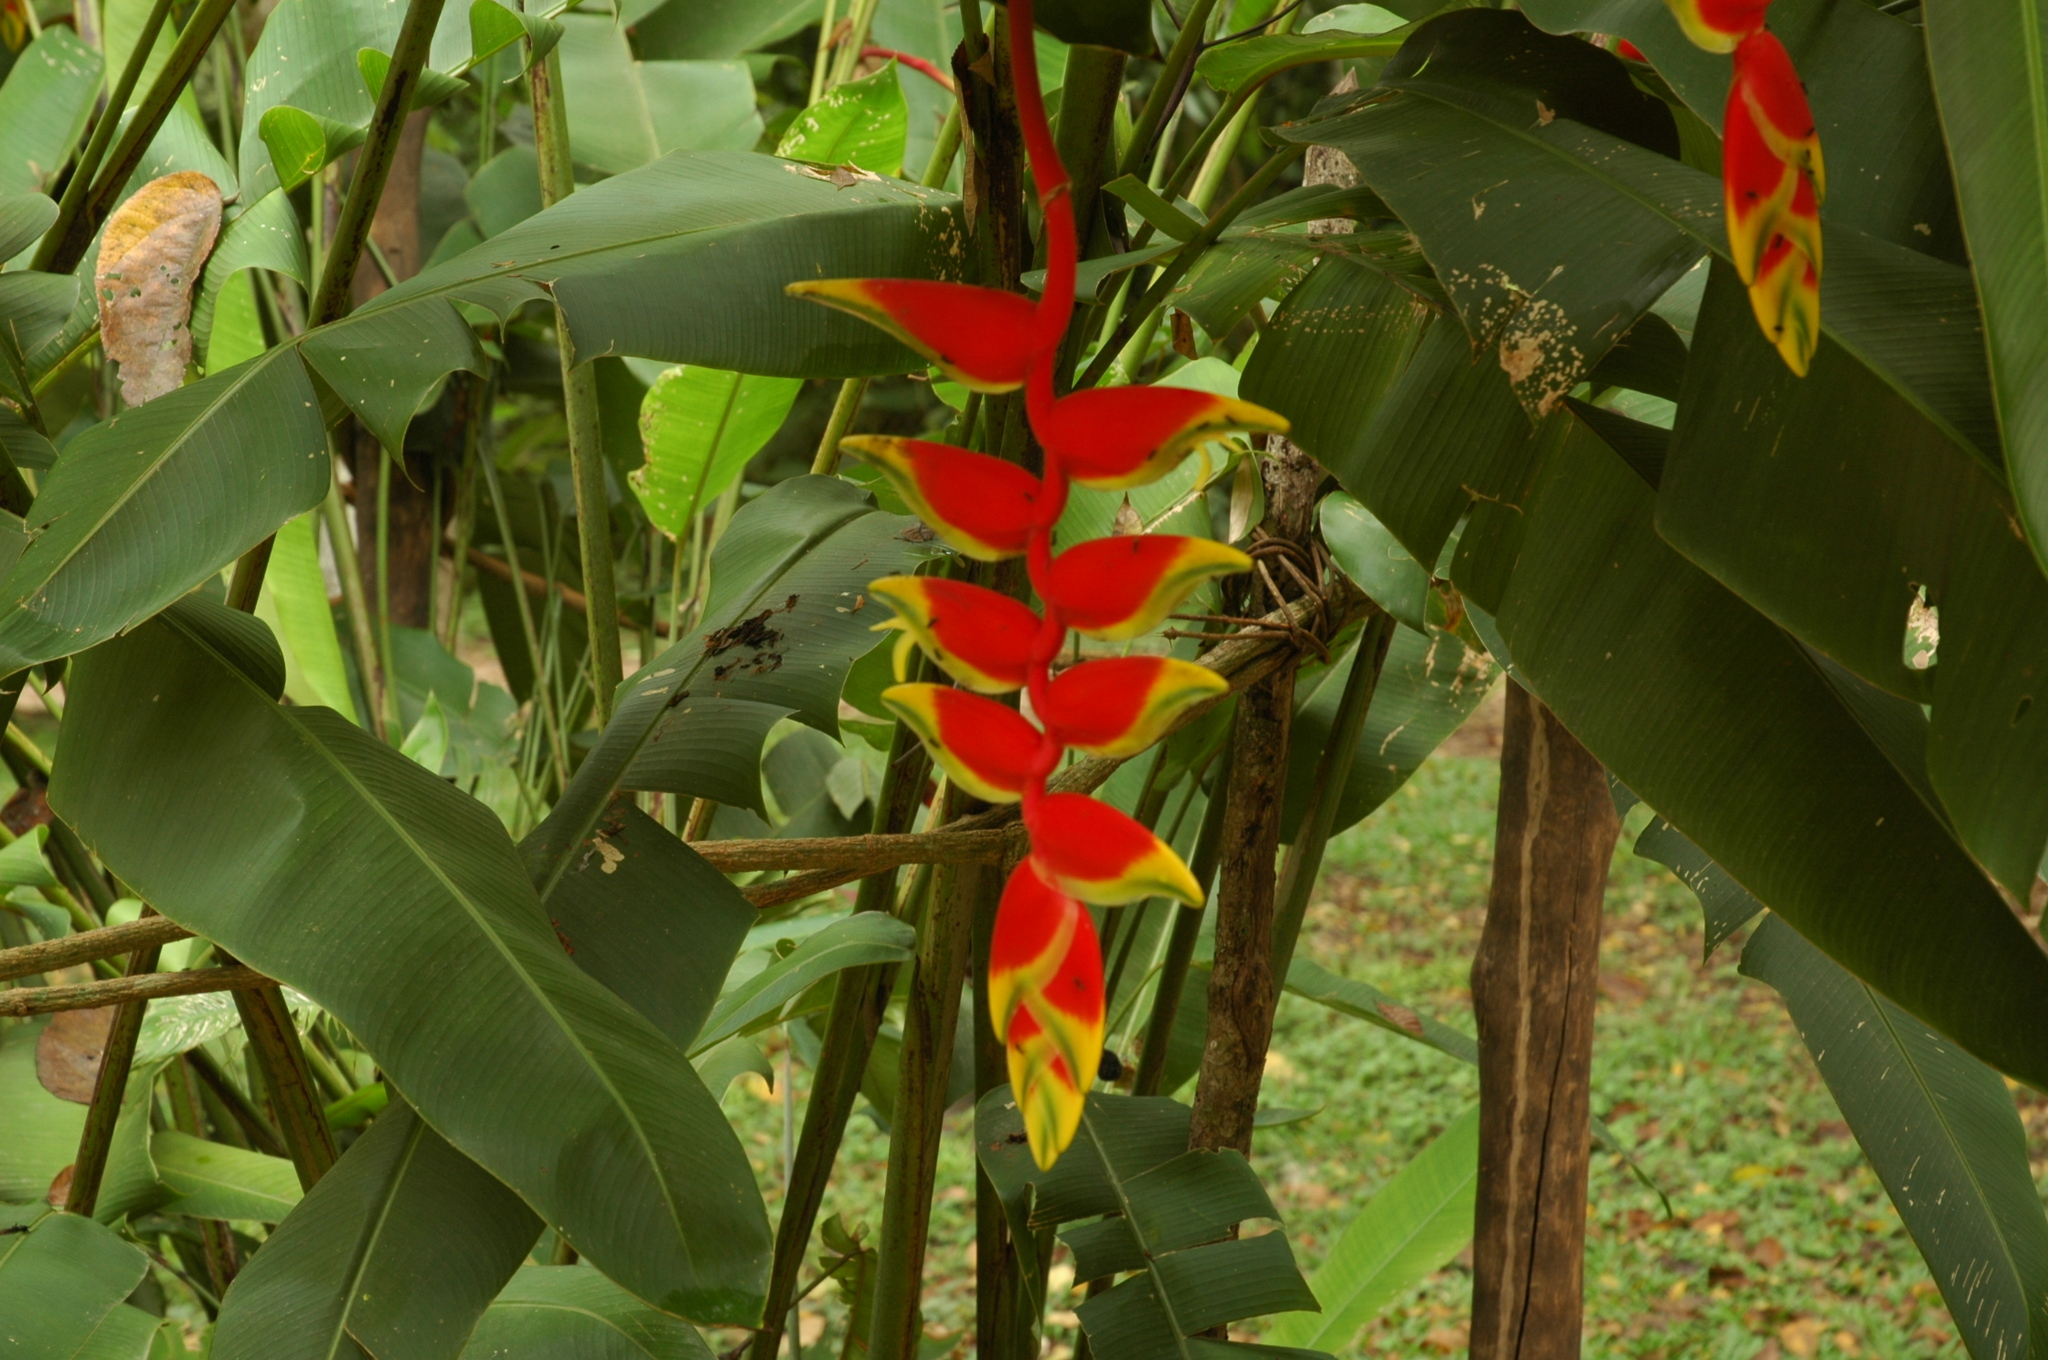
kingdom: Plantae
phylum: Tracheophyta
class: Liliopsida
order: Zingiberales
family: Heliconiaceae
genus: Heliconia
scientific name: Heliconia rostrata
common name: False bird of paradise
